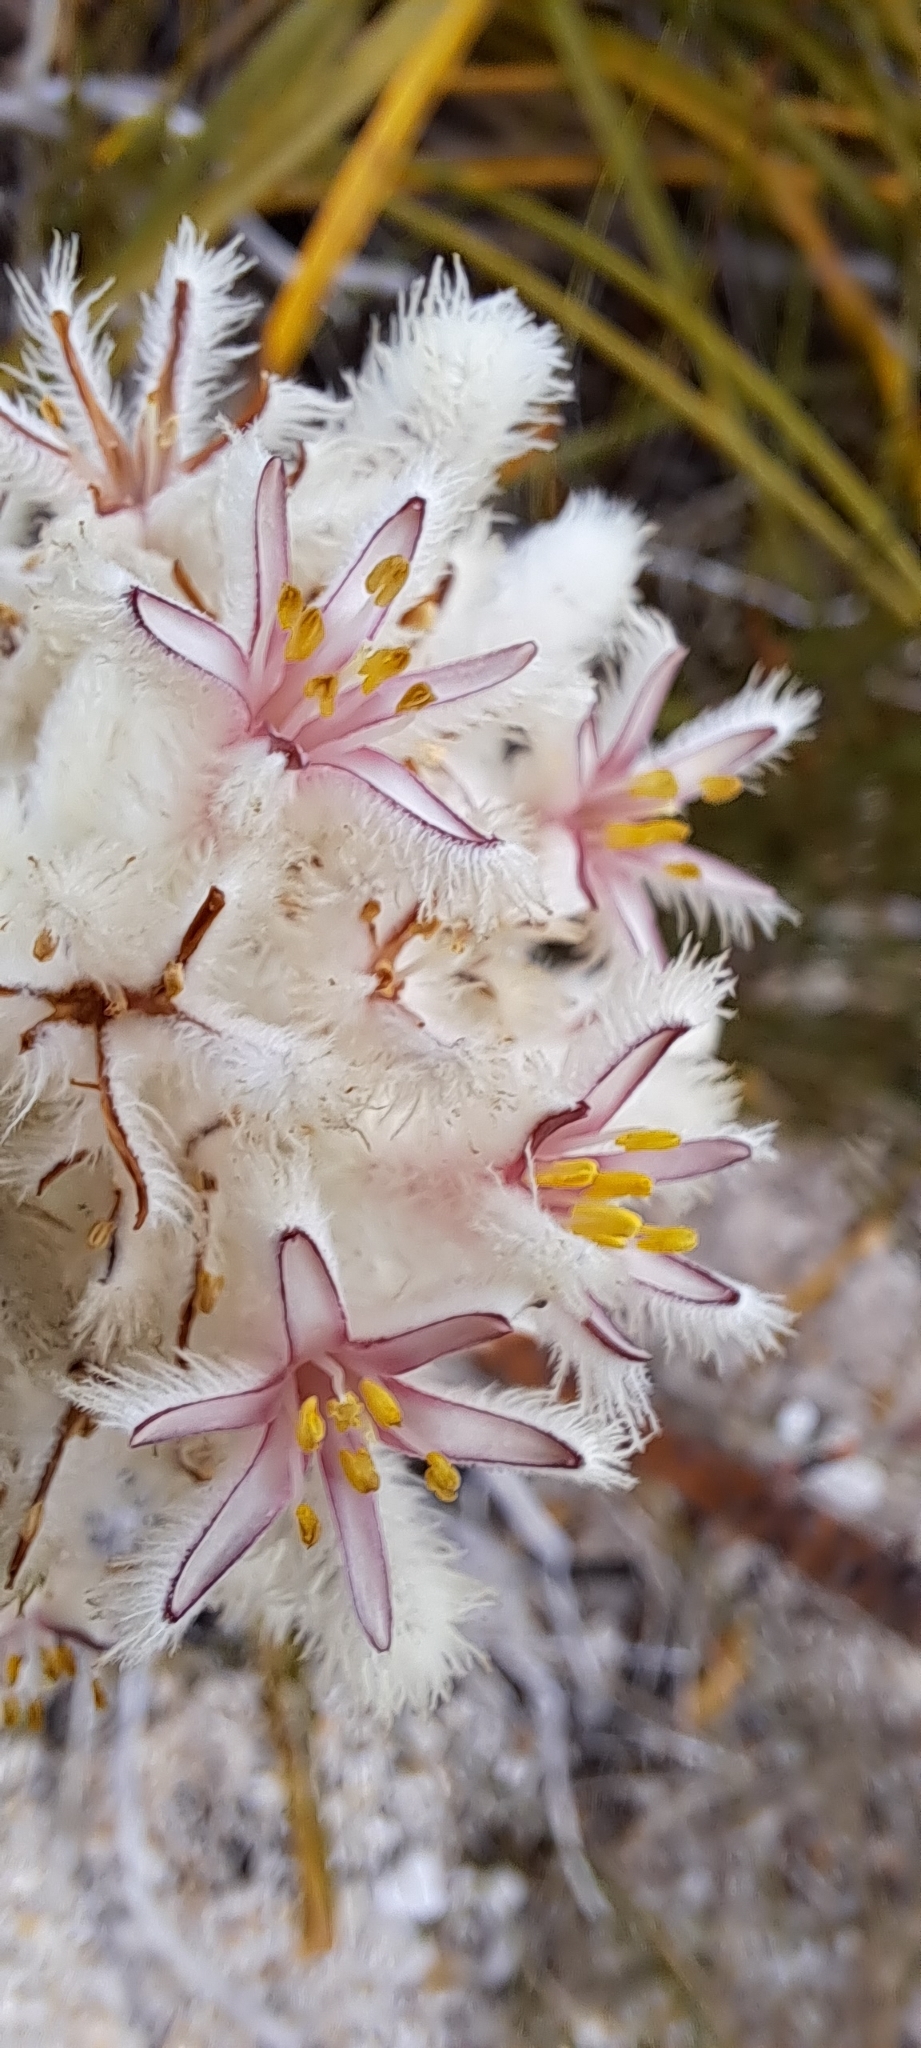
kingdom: Plantae
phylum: Tracheophyta
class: Liliopsida
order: Asparagales
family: Lanariaceae
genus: Lanaria
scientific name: Lanaria lanata
